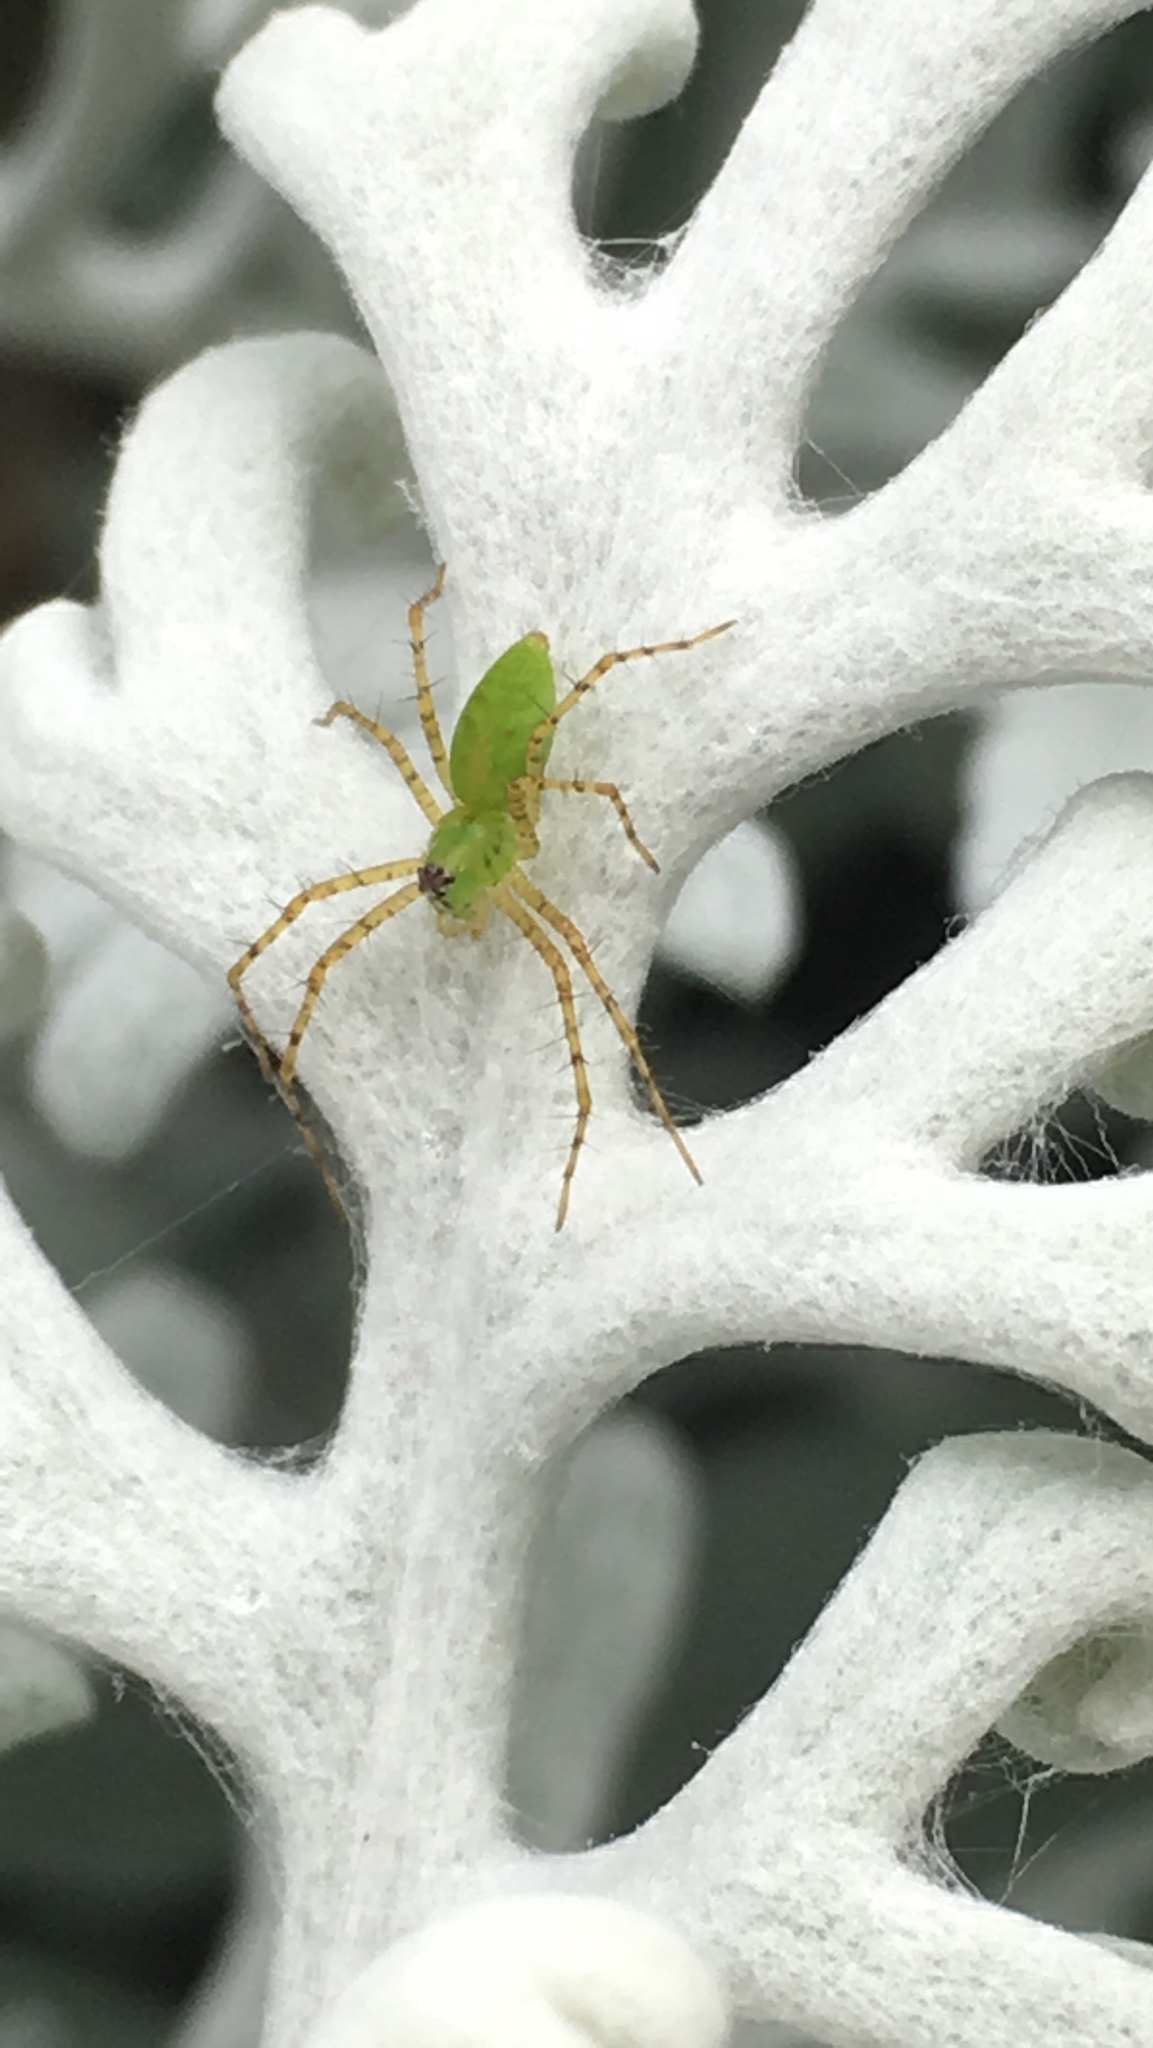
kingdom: Animalia
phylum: Arthropoda
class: Arachnida
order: Araneae
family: Oxyopidae
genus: Peucetia
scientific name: Peucetia viridans
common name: Lynx spiders
